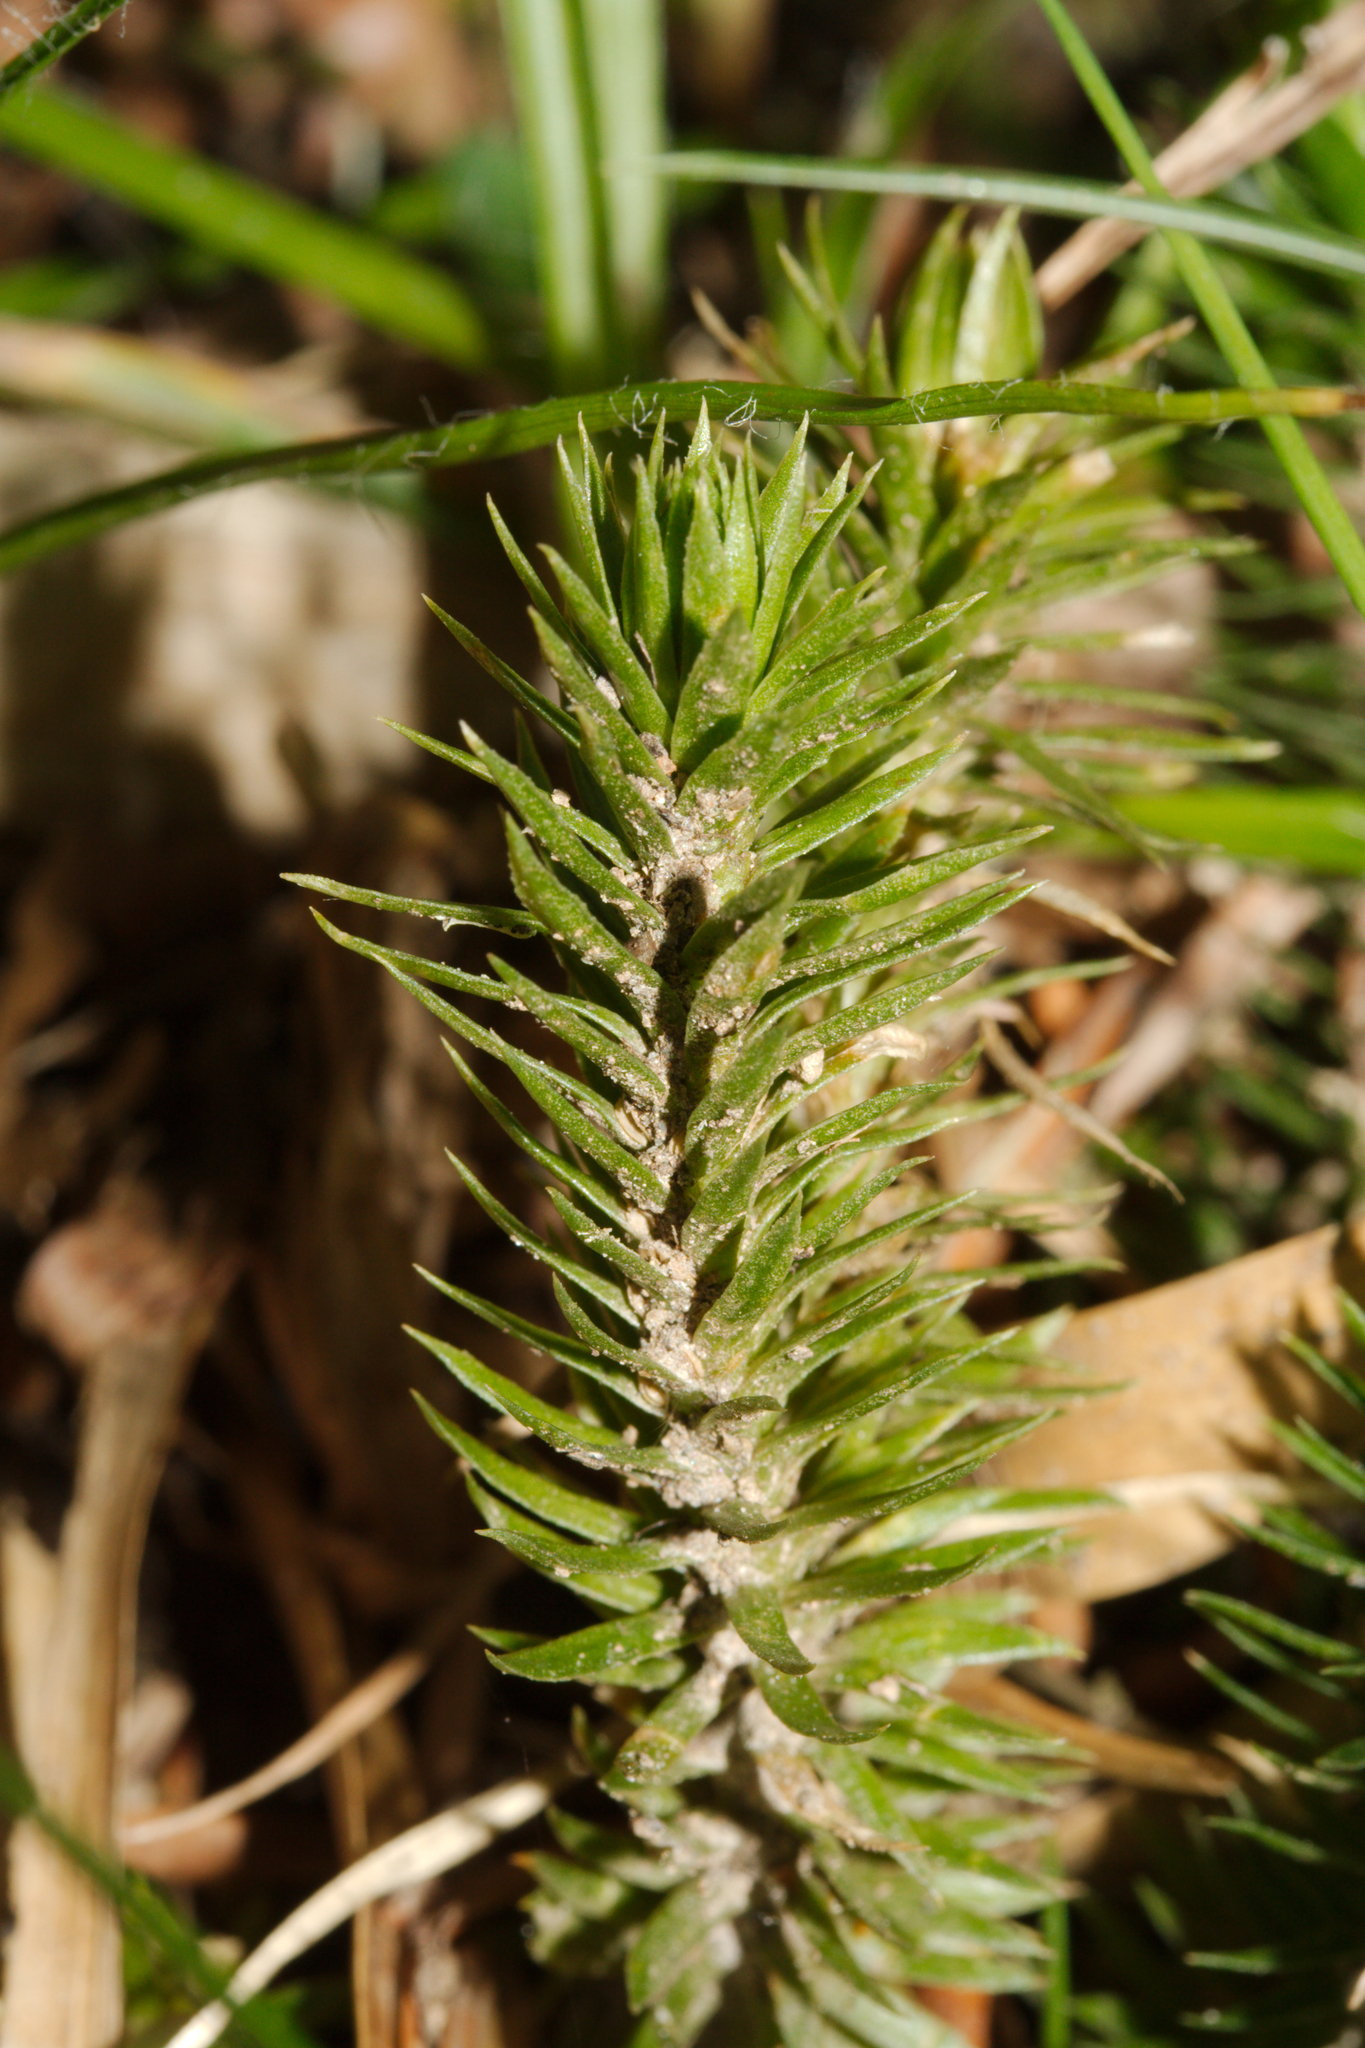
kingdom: Plantae
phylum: Tracheophyta
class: Lycopodiopsida
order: Lycopodiales
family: Lycopodiaceae
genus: Huperzia
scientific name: Huperzia selago
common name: Northern firmoss
